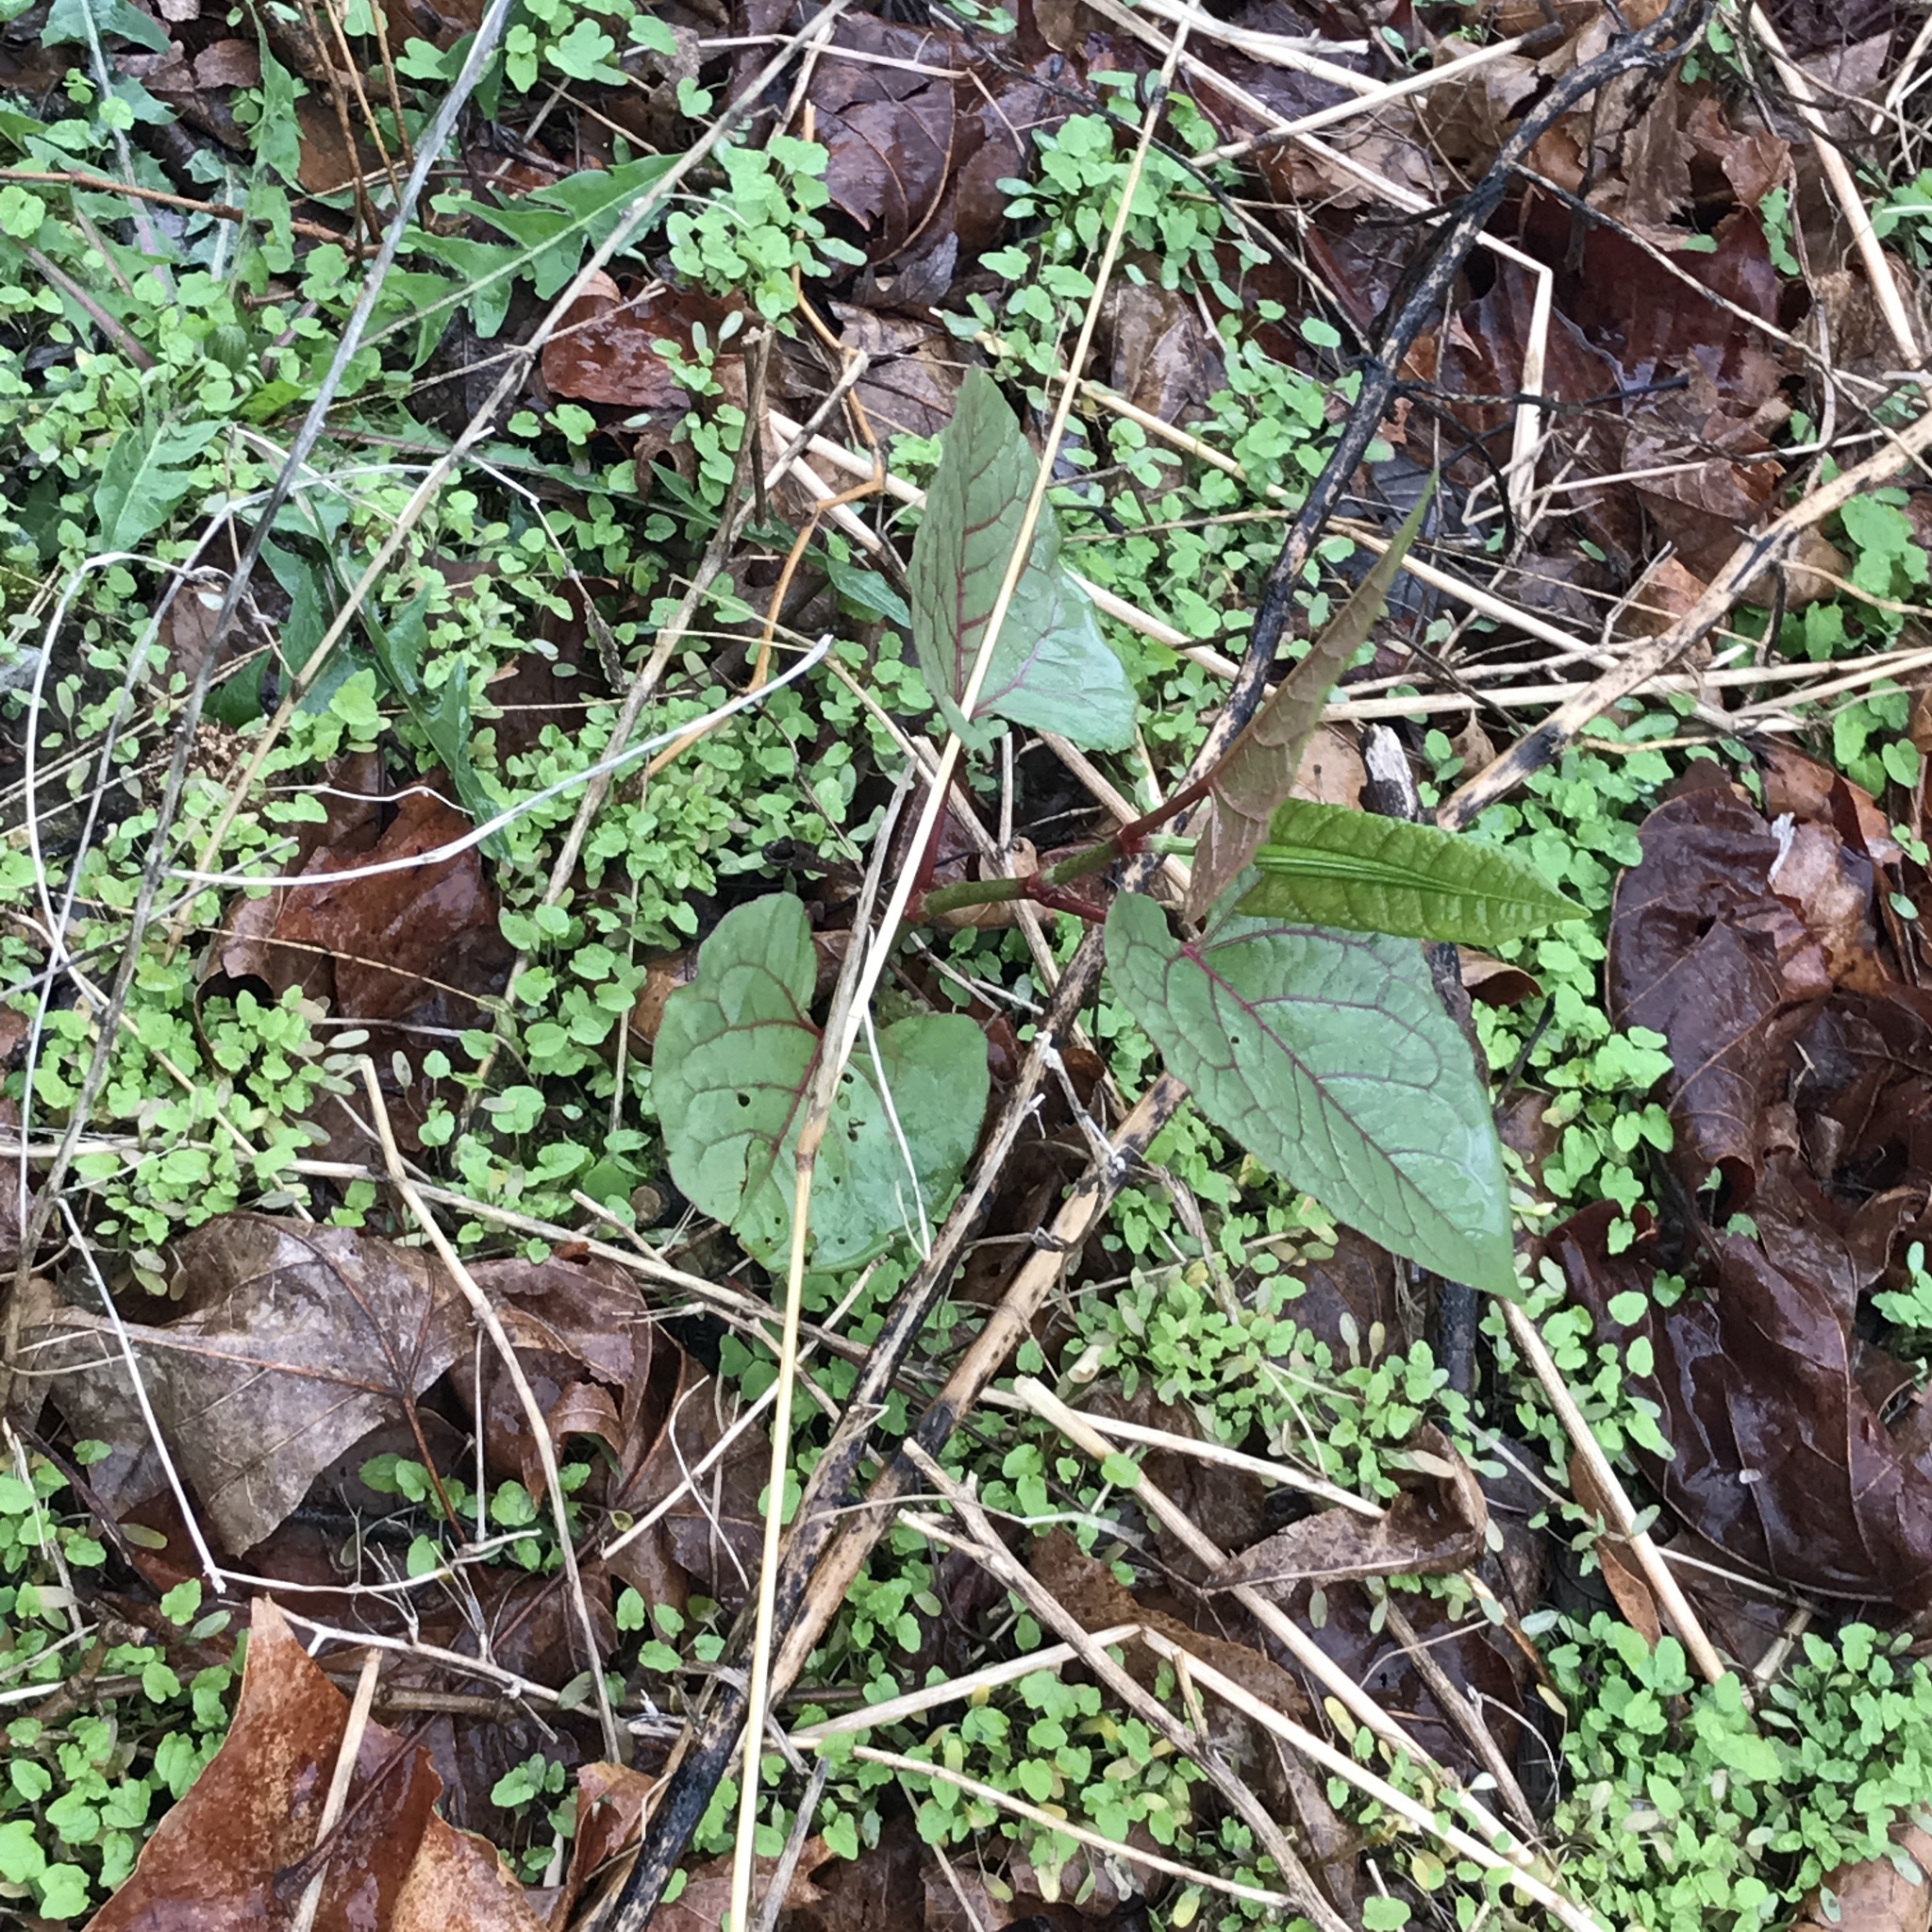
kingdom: Plantae
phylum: Tracheophyta
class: Magnoliopsida
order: Caryophyllales
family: Polygonaceae
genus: Reynoutria
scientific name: Reynoutria japonica
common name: Japanese knotweed
